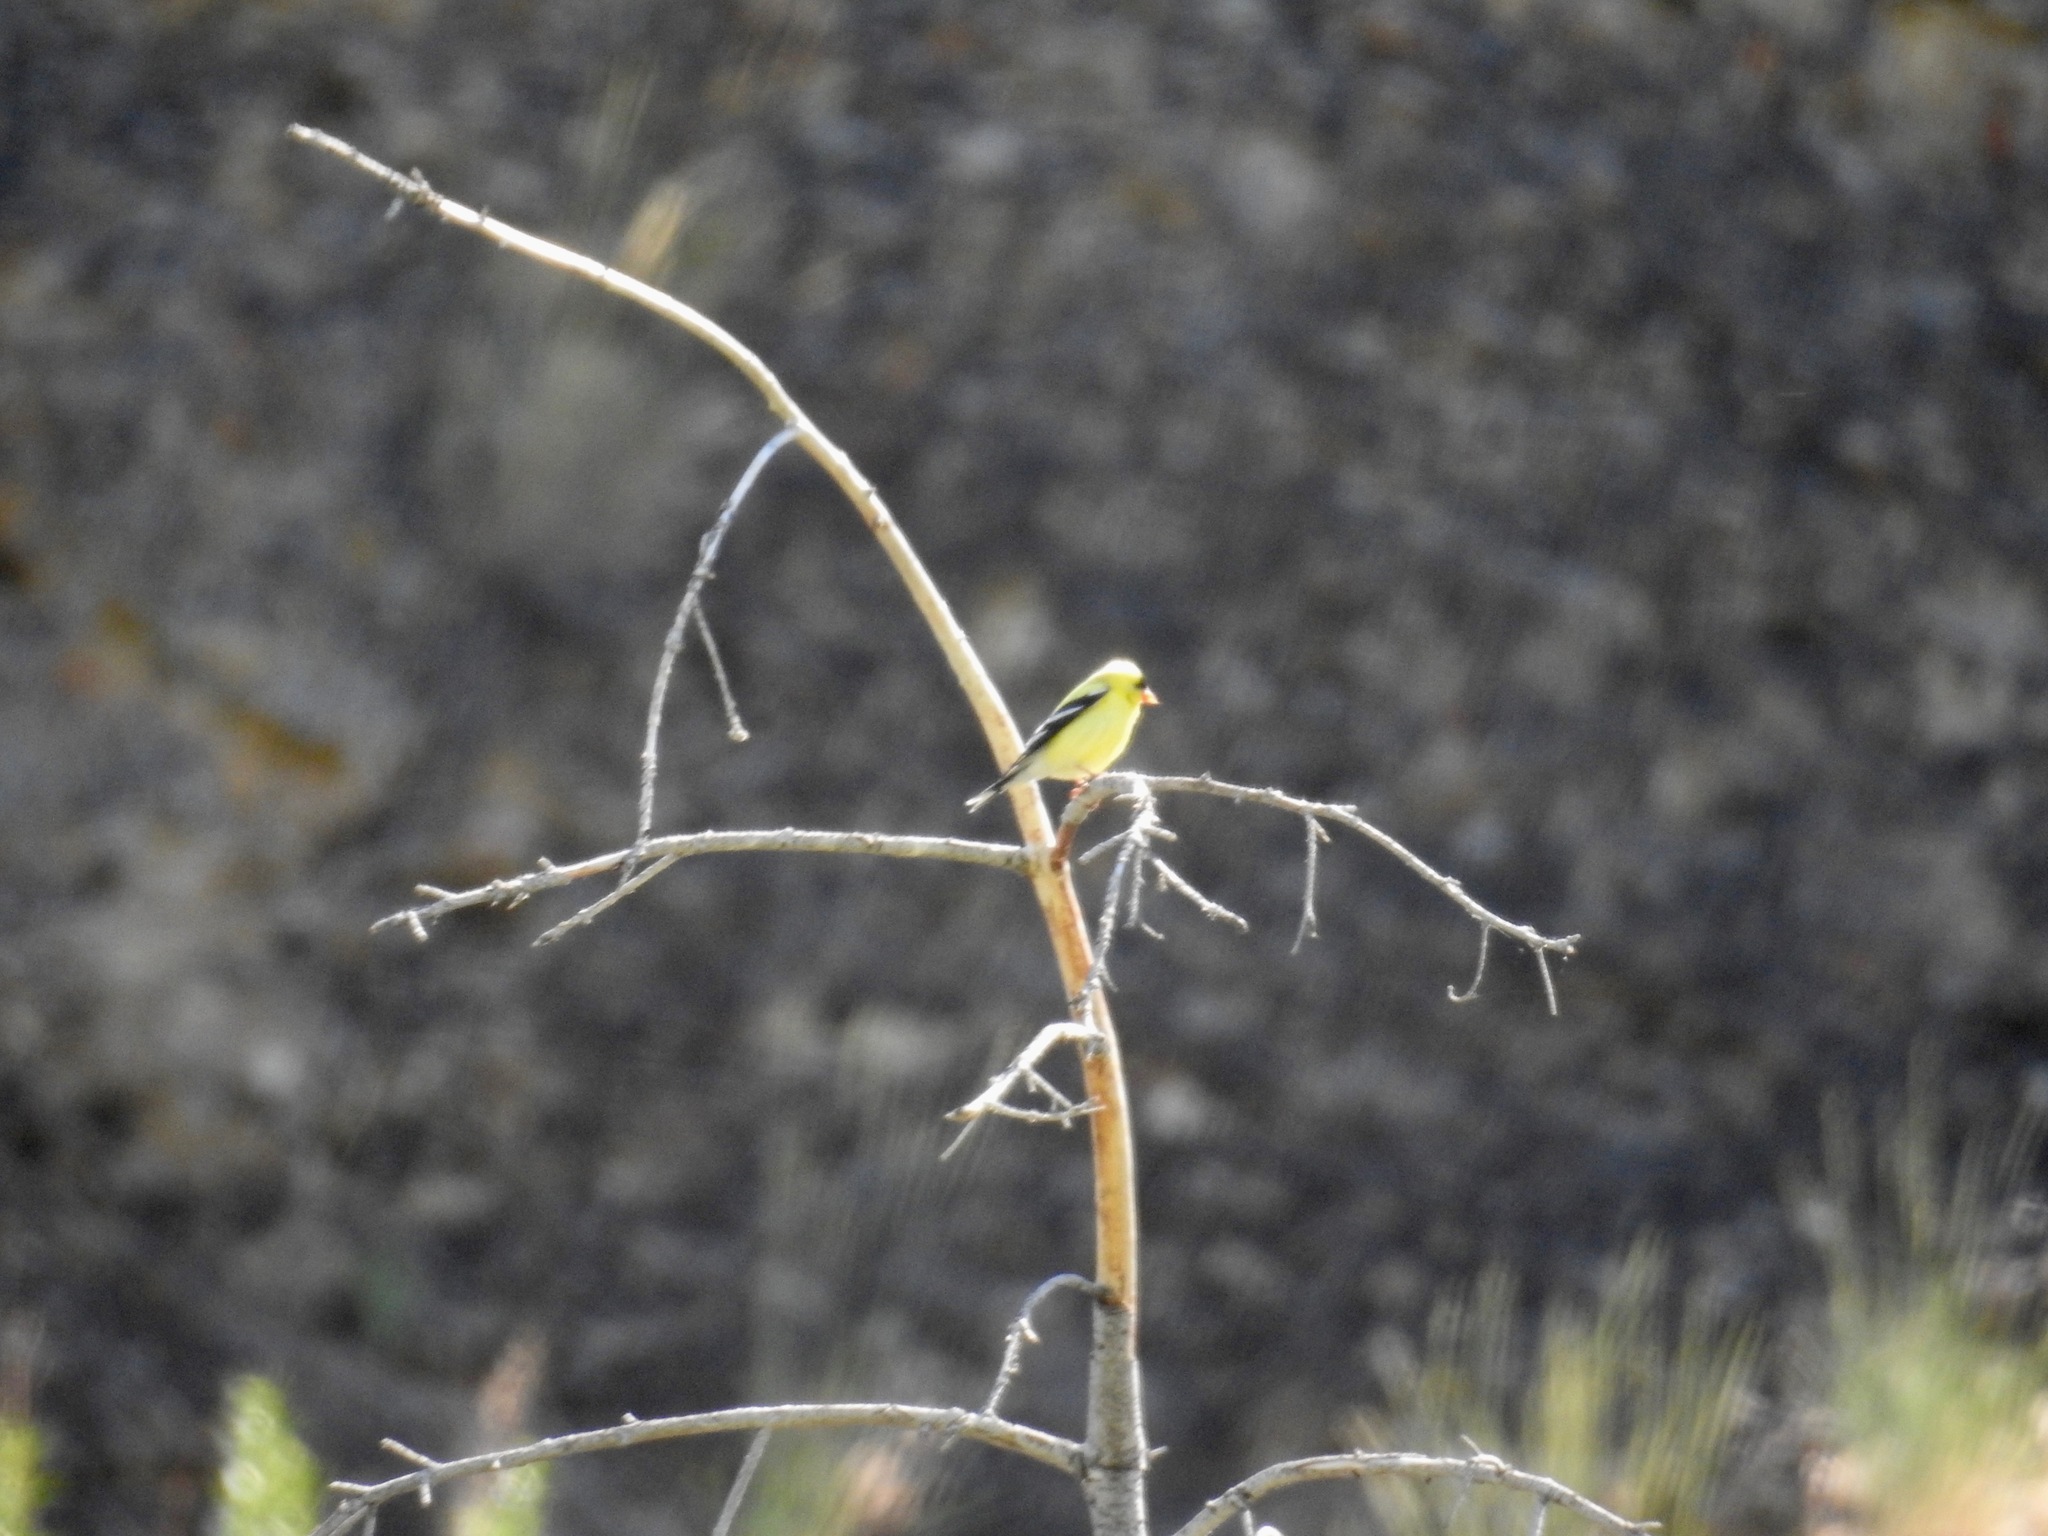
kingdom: Animalia
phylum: Chordata
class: Aves
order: Passeriformes
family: Fringillidae
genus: Spinus
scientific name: Spinus tristis
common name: American goldfinch
